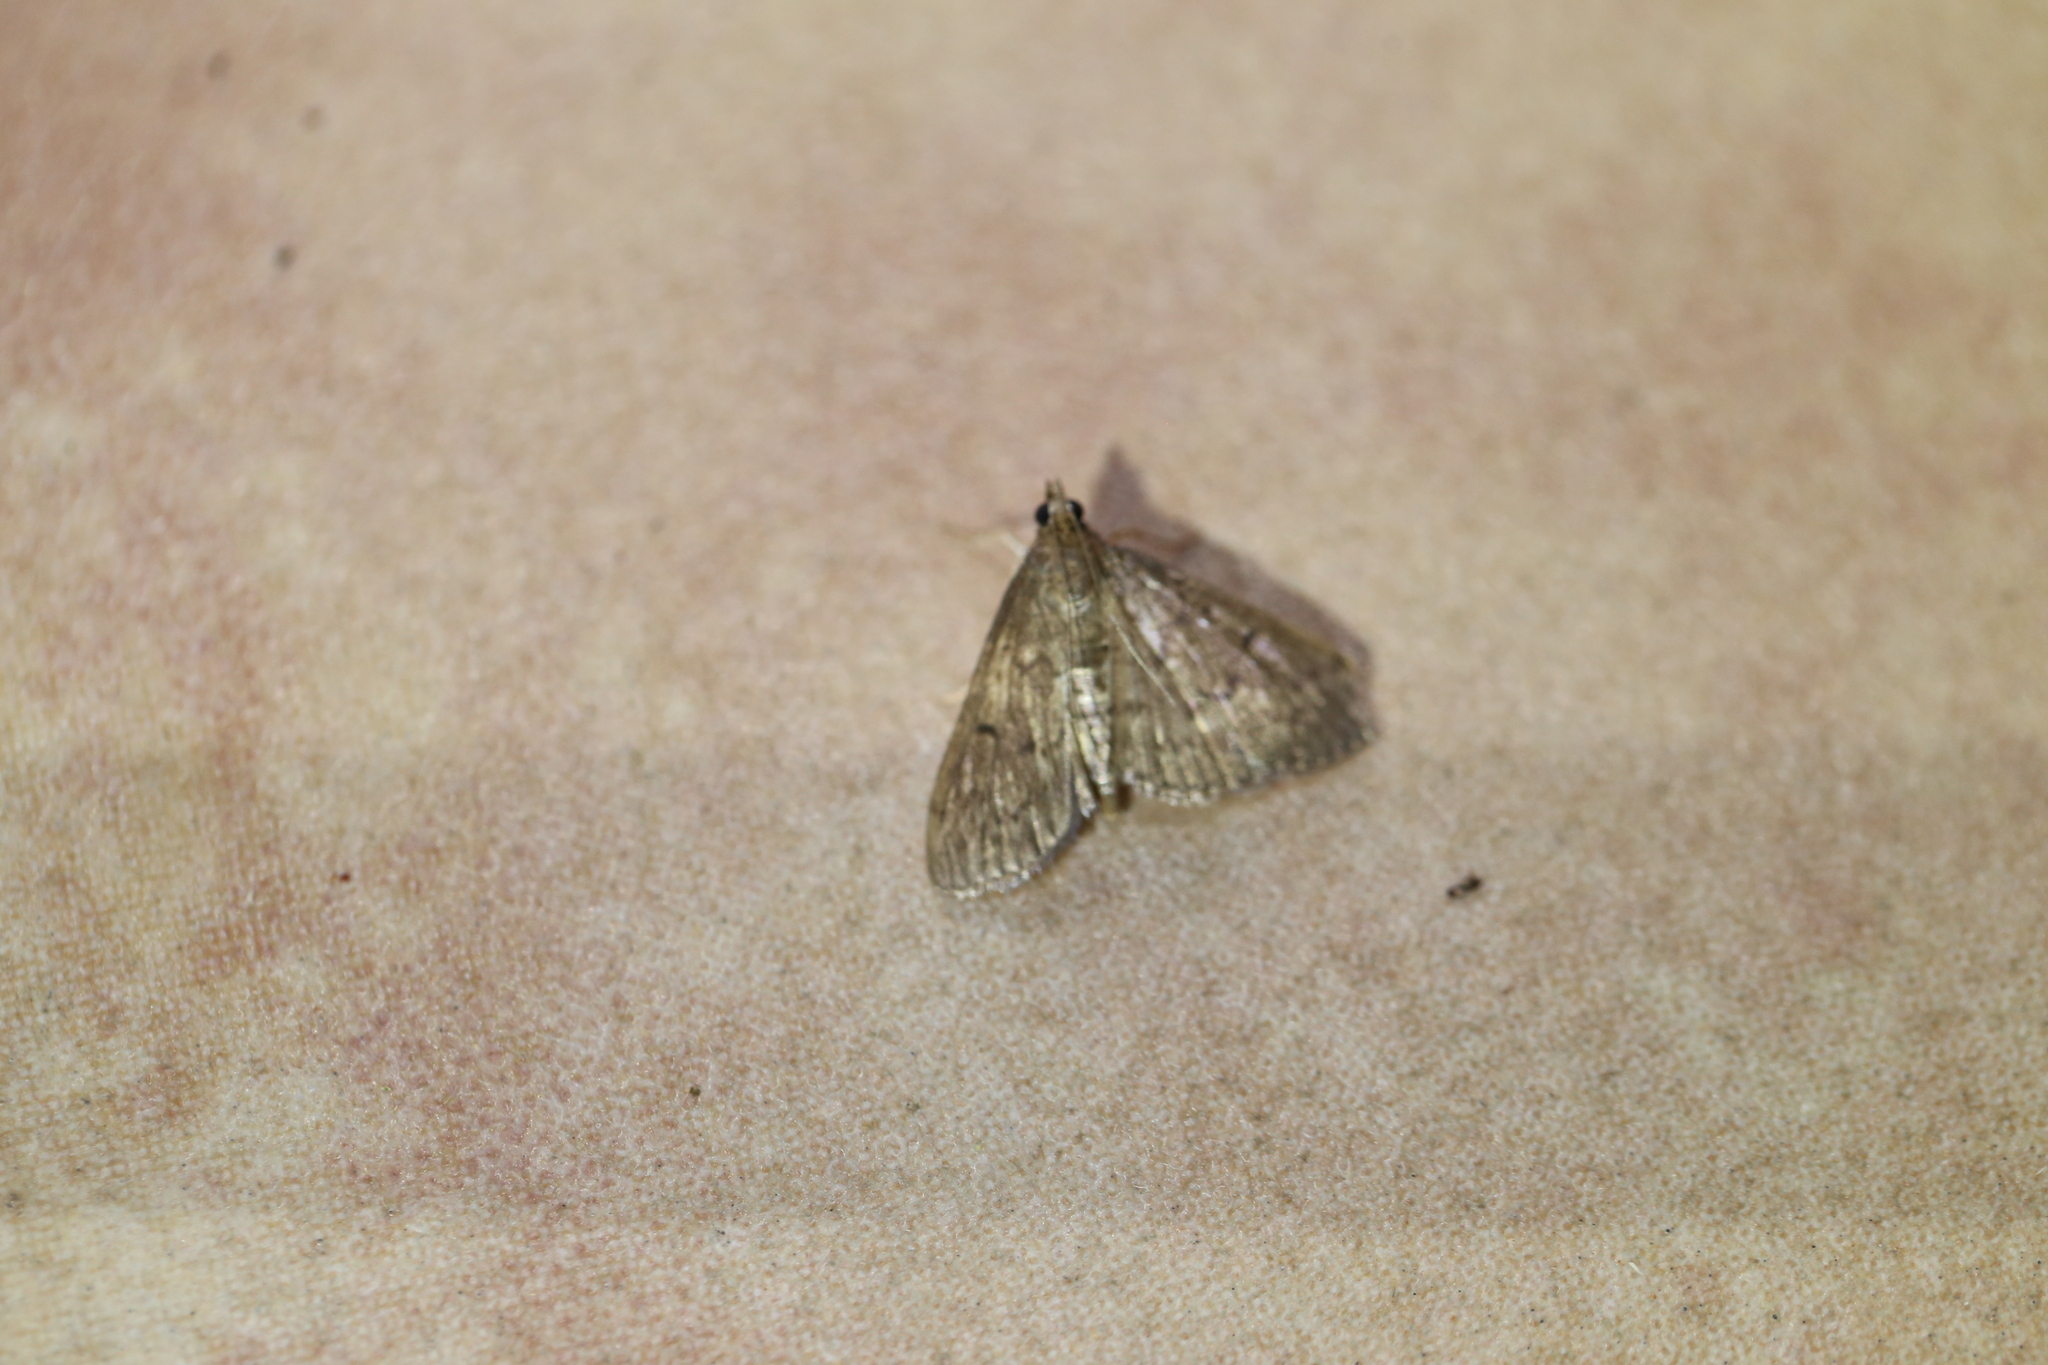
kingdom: Animalia
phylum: Arthropoda
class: Insecta
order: Lepidoptera
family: Crambidae
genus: Herpetogramma
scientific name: Herpetogramma licarsisalis
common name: Grass webworm
